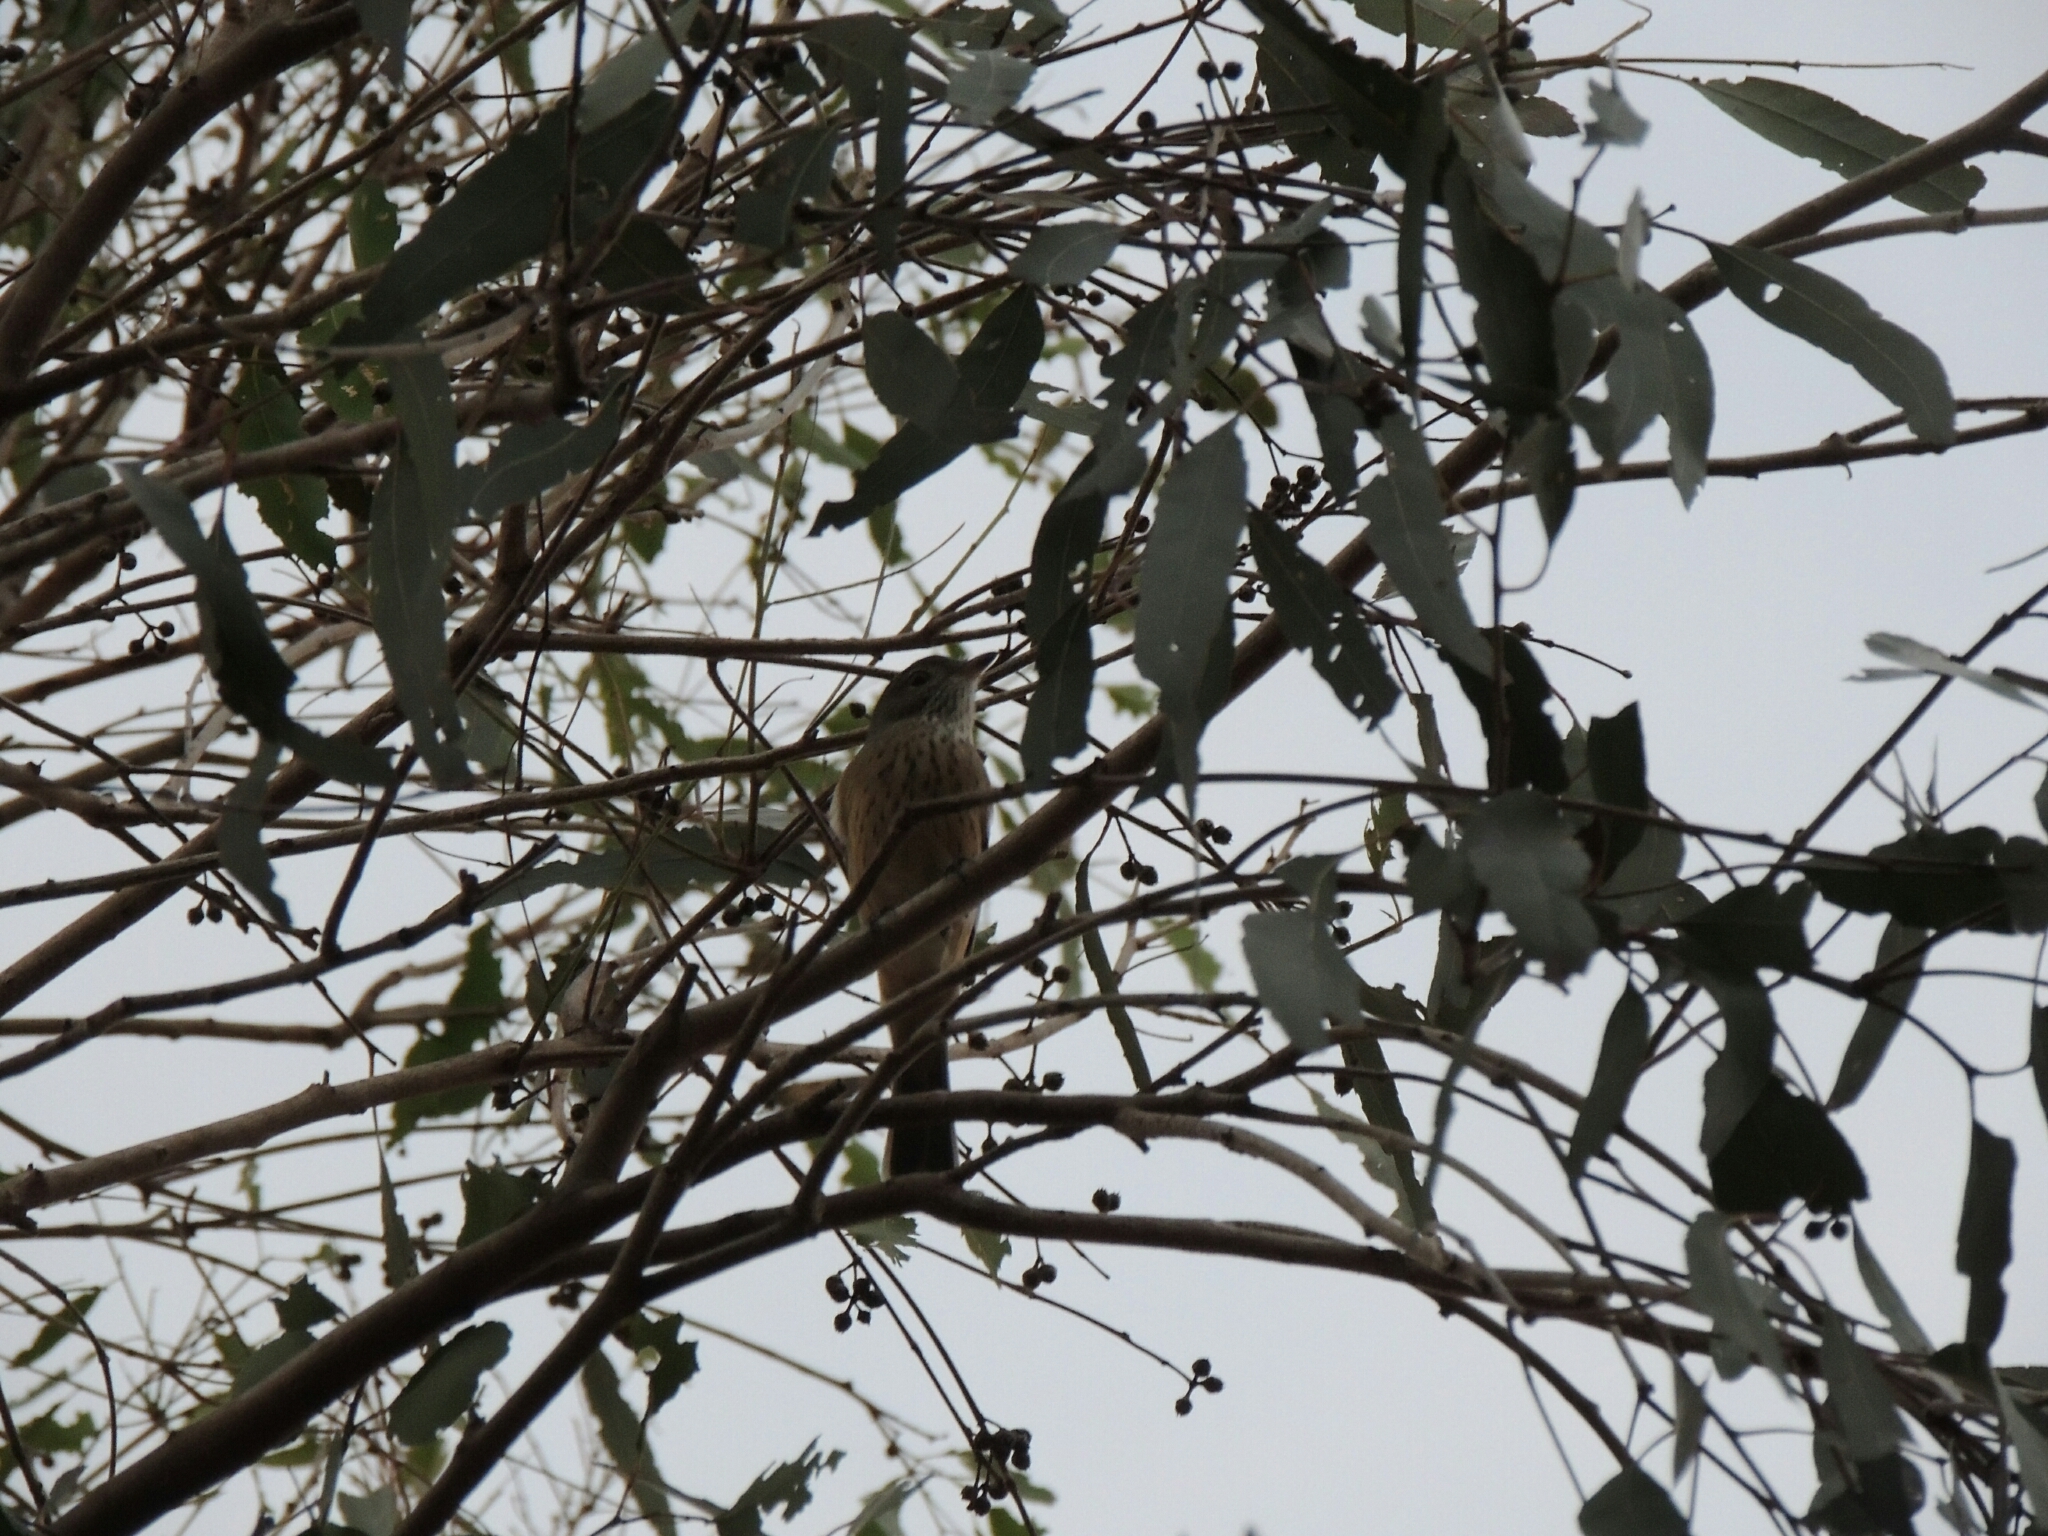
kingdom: Animalia
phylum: Chordata
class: Aves
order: Passeriformes
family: Pachycephalidae
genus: Pachycephala
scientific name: Pachycephala rufiventris
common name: Rufous whistler
